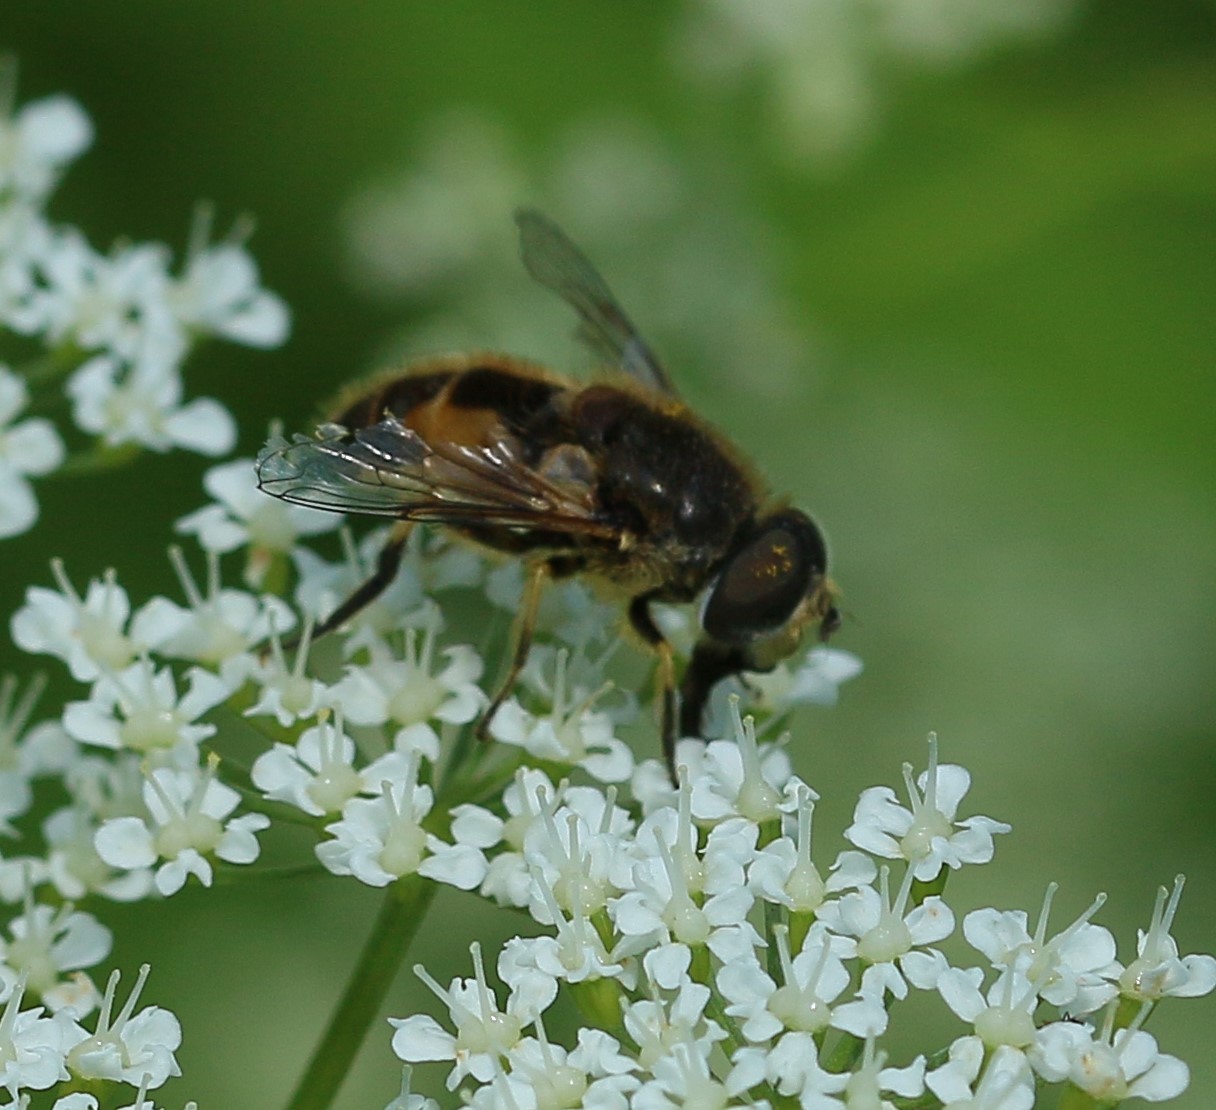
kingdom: Animalia
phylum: Arthropoda
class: Insecta
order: Diptera
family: Syrphidae
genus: Eristalis
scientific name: Eristalis arbustorum
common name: Hover fly
